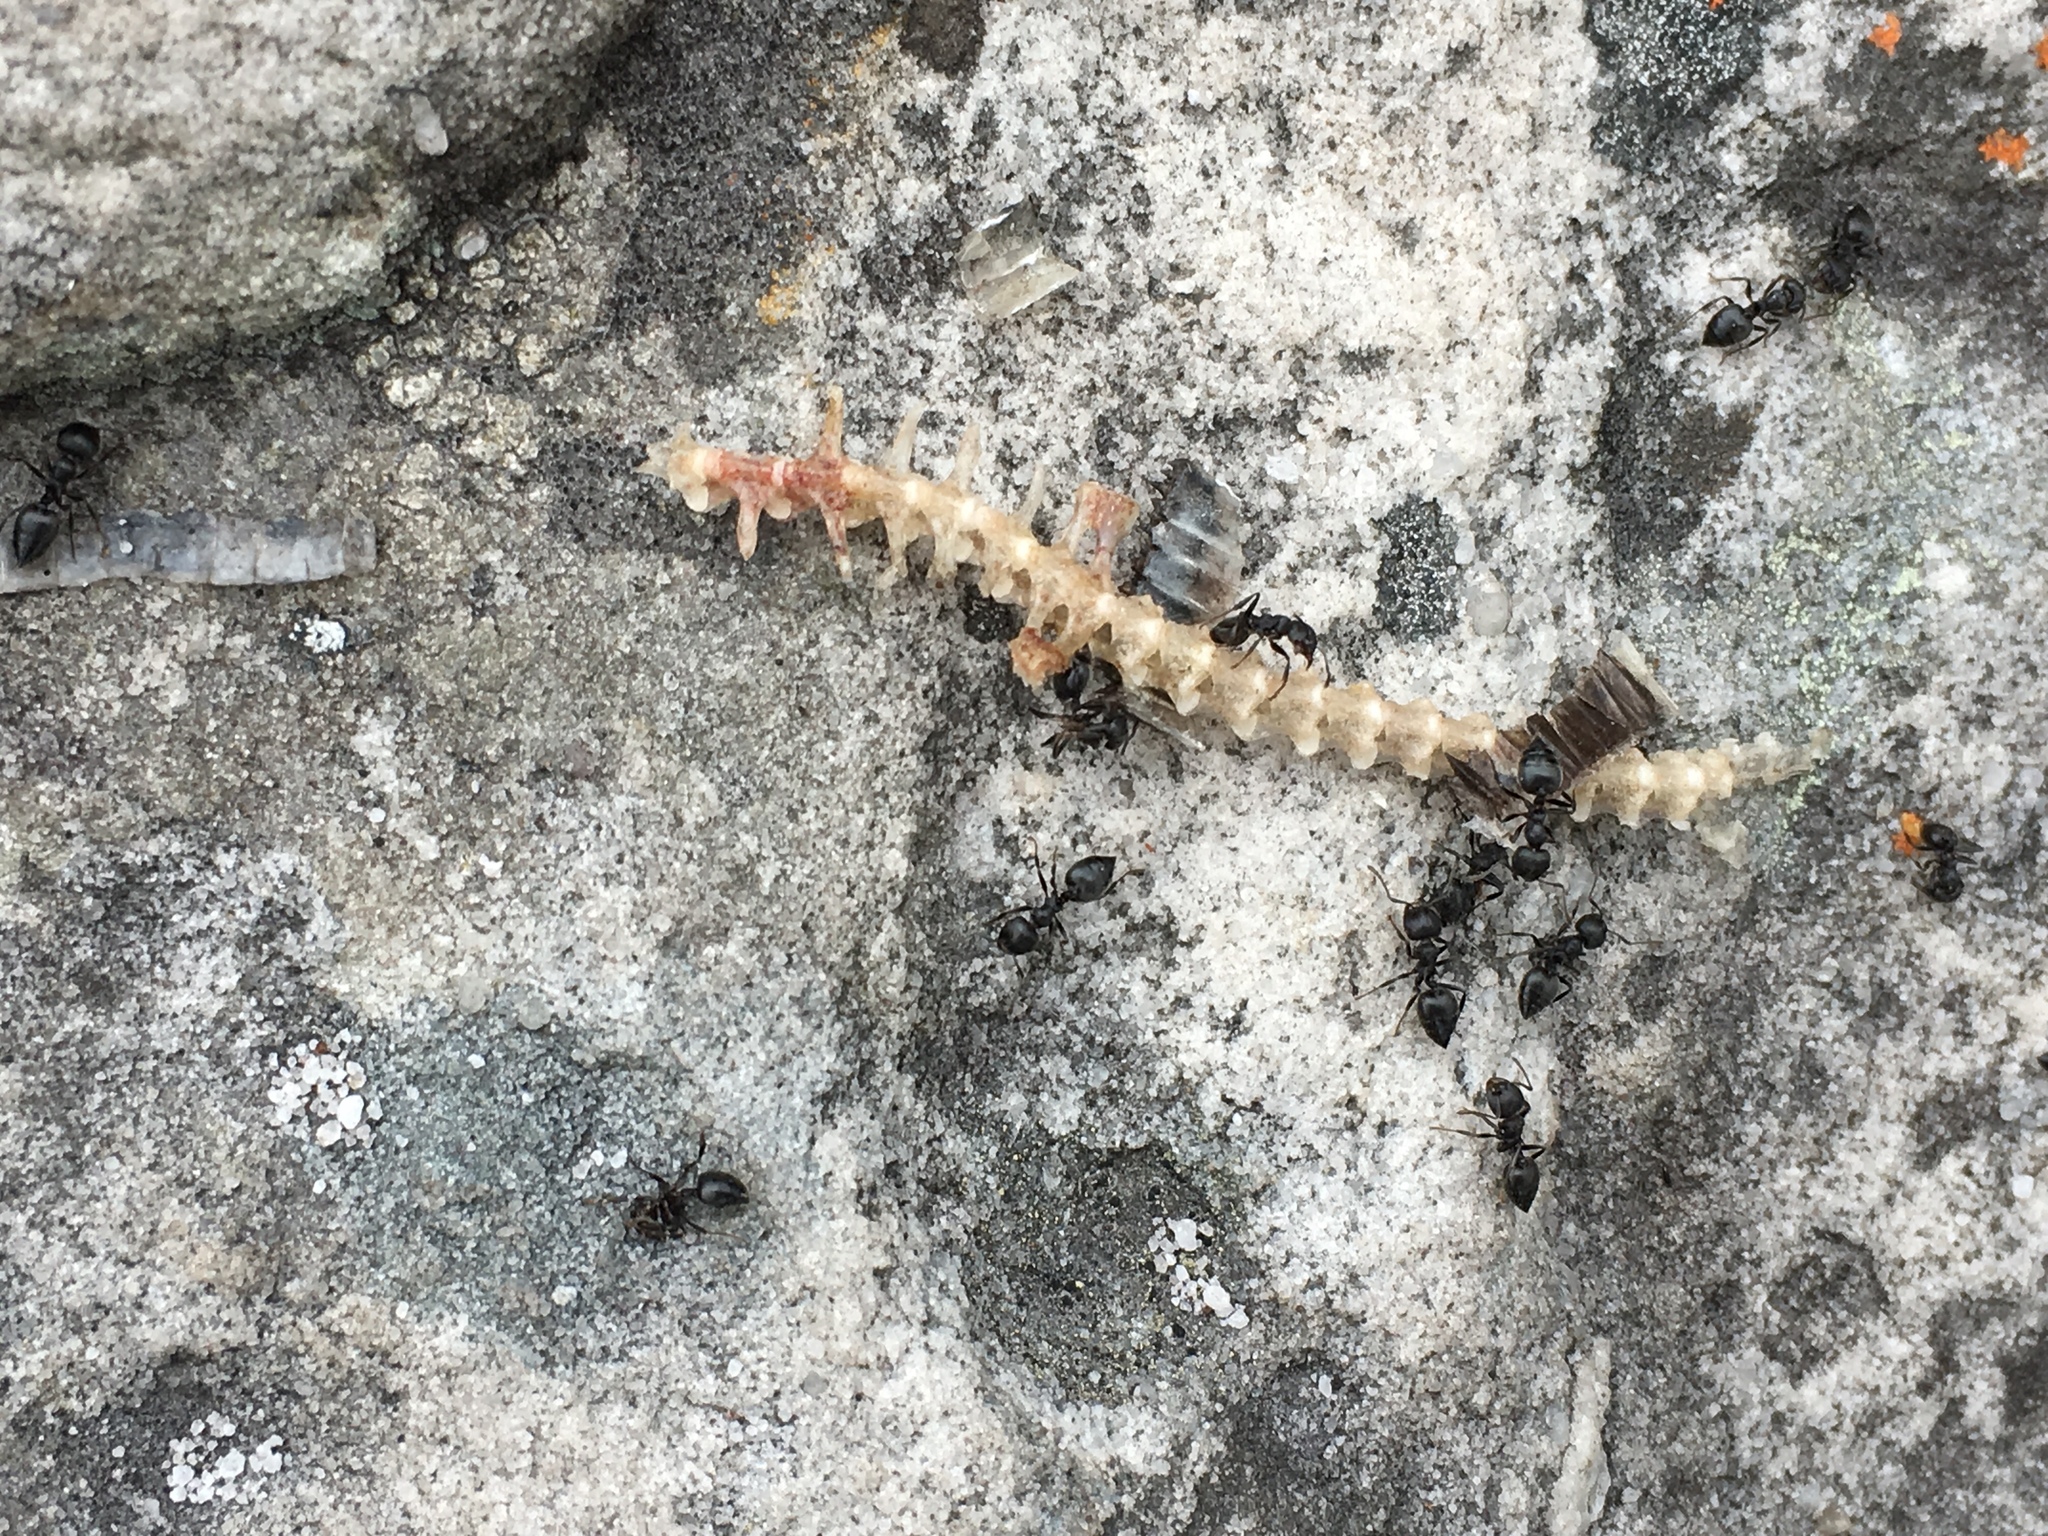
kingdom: Animalia
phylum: Arthropoda
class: Insecta
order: Hymenoptera
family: Formicidae
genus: Crematogaster
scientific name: Crematogaster peringueyi
